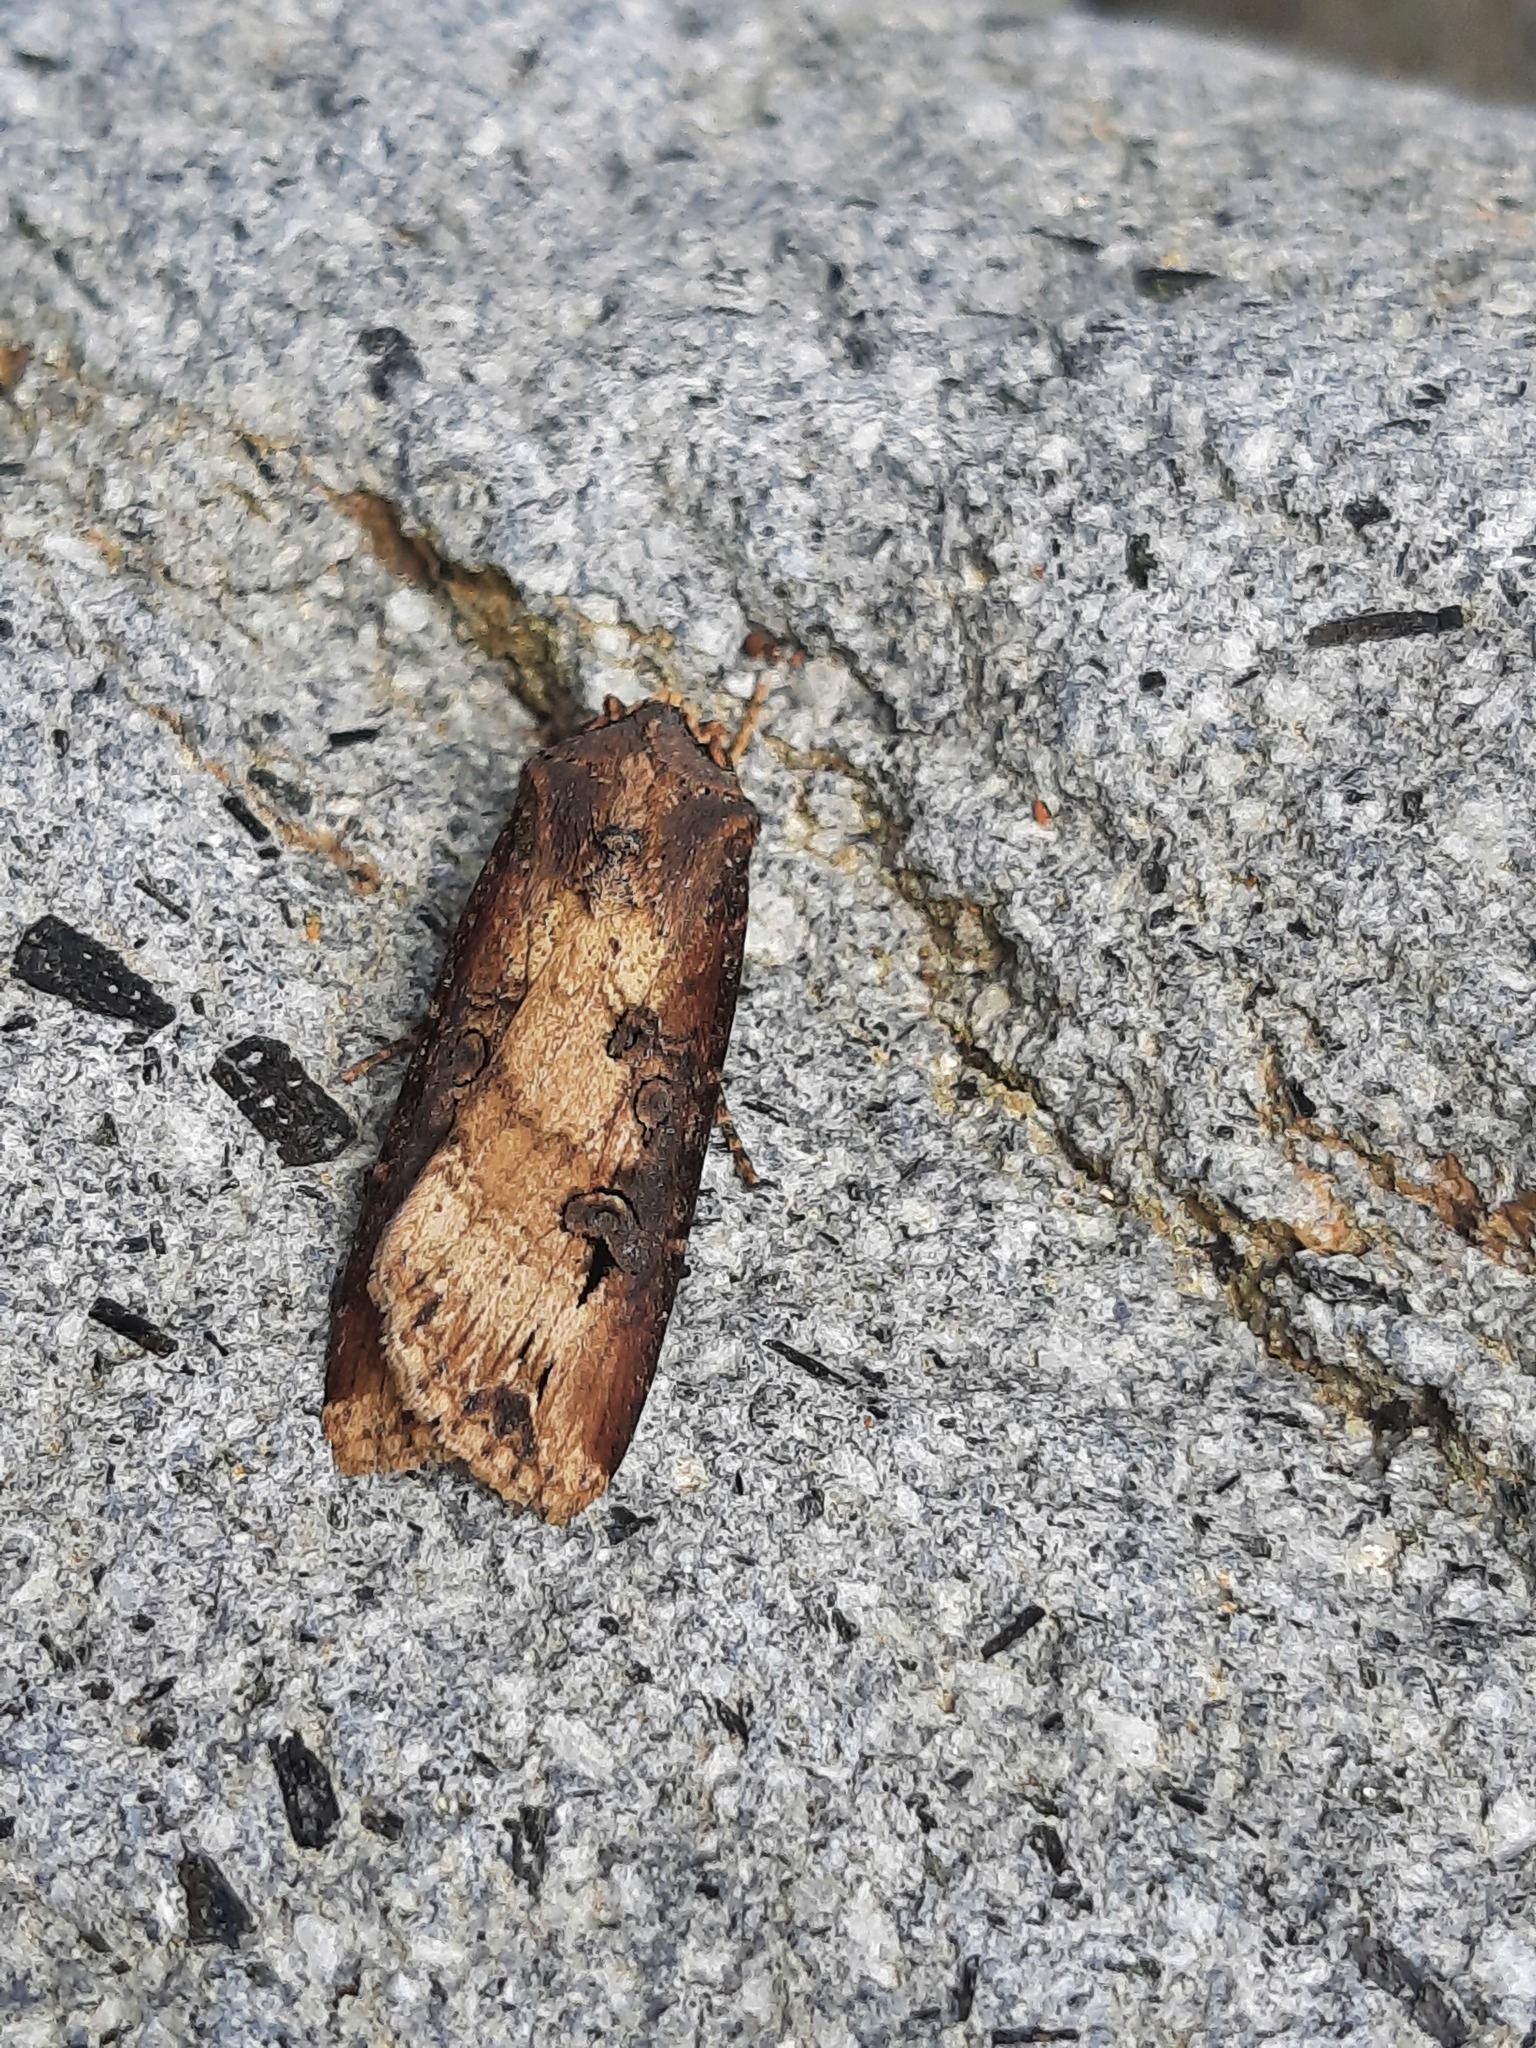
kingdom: Animalia
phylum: Arthropoda
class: Insecta
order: Lepidoptera
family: Noctuidae
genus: Agrotis
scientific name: Agrotis ipsilon
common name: Dark sword-grass
